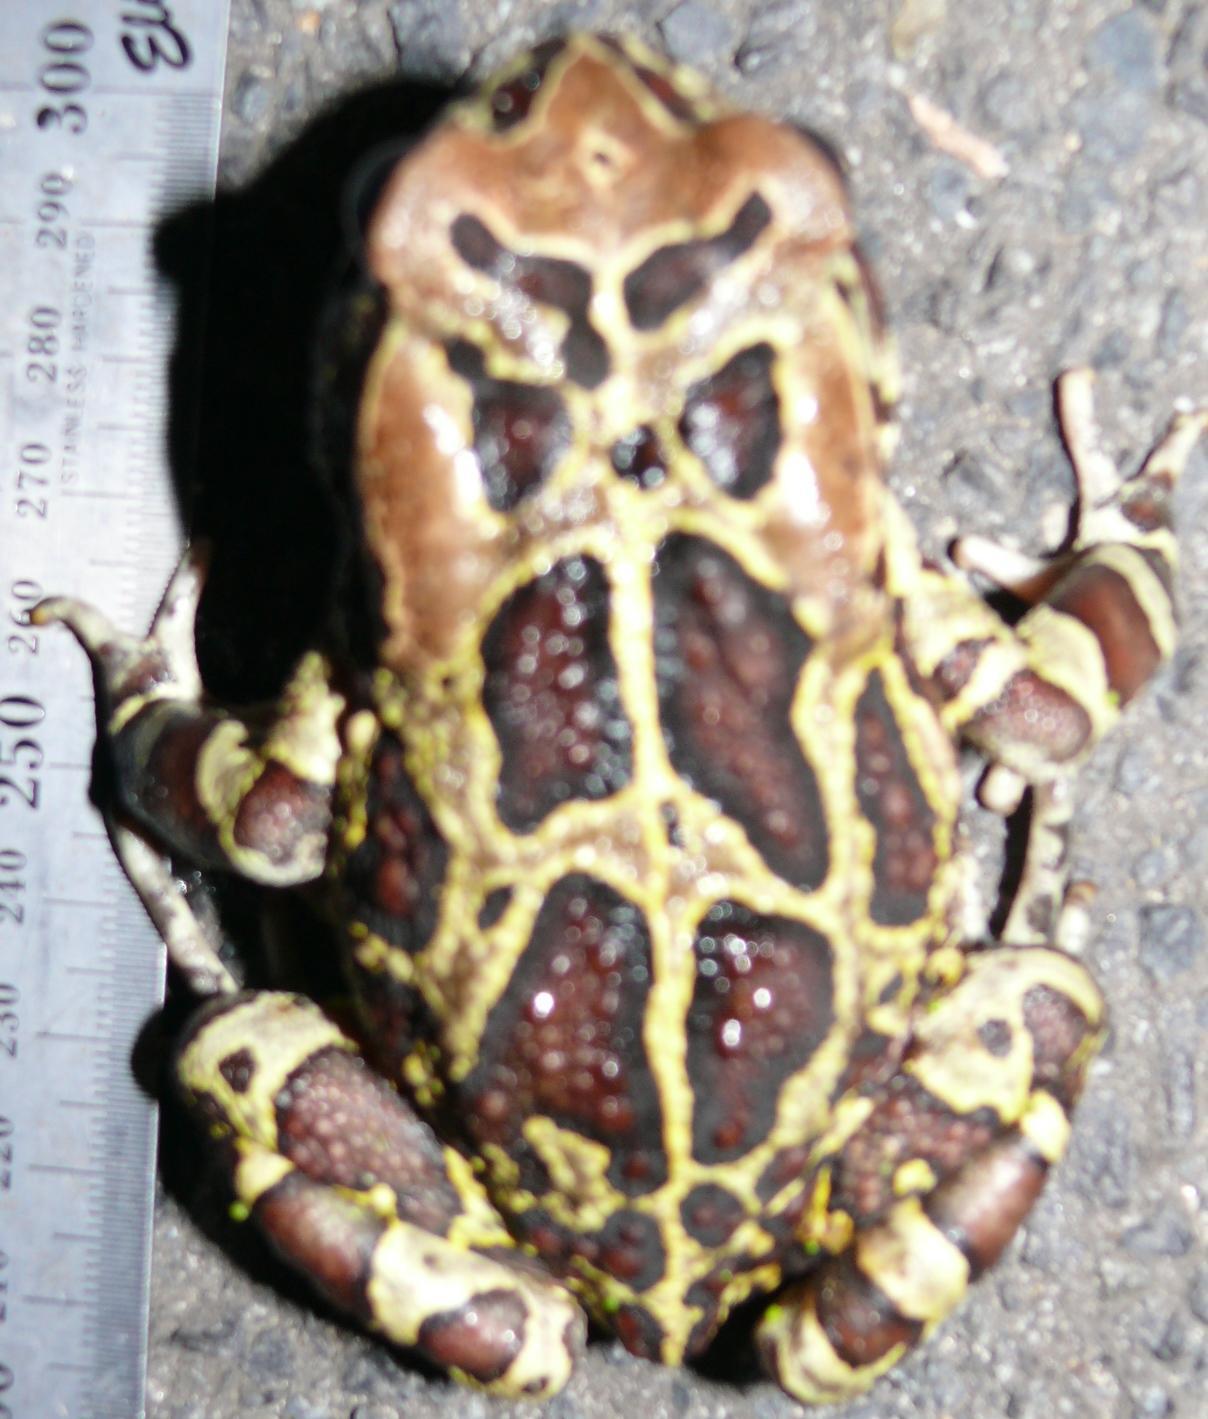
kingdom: Animalia
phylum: Chordata
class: Amphibia
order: Anura
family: Bufonidae
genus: Sclerophrys
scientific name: Sclerophrys pantherina
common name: Panther toad
